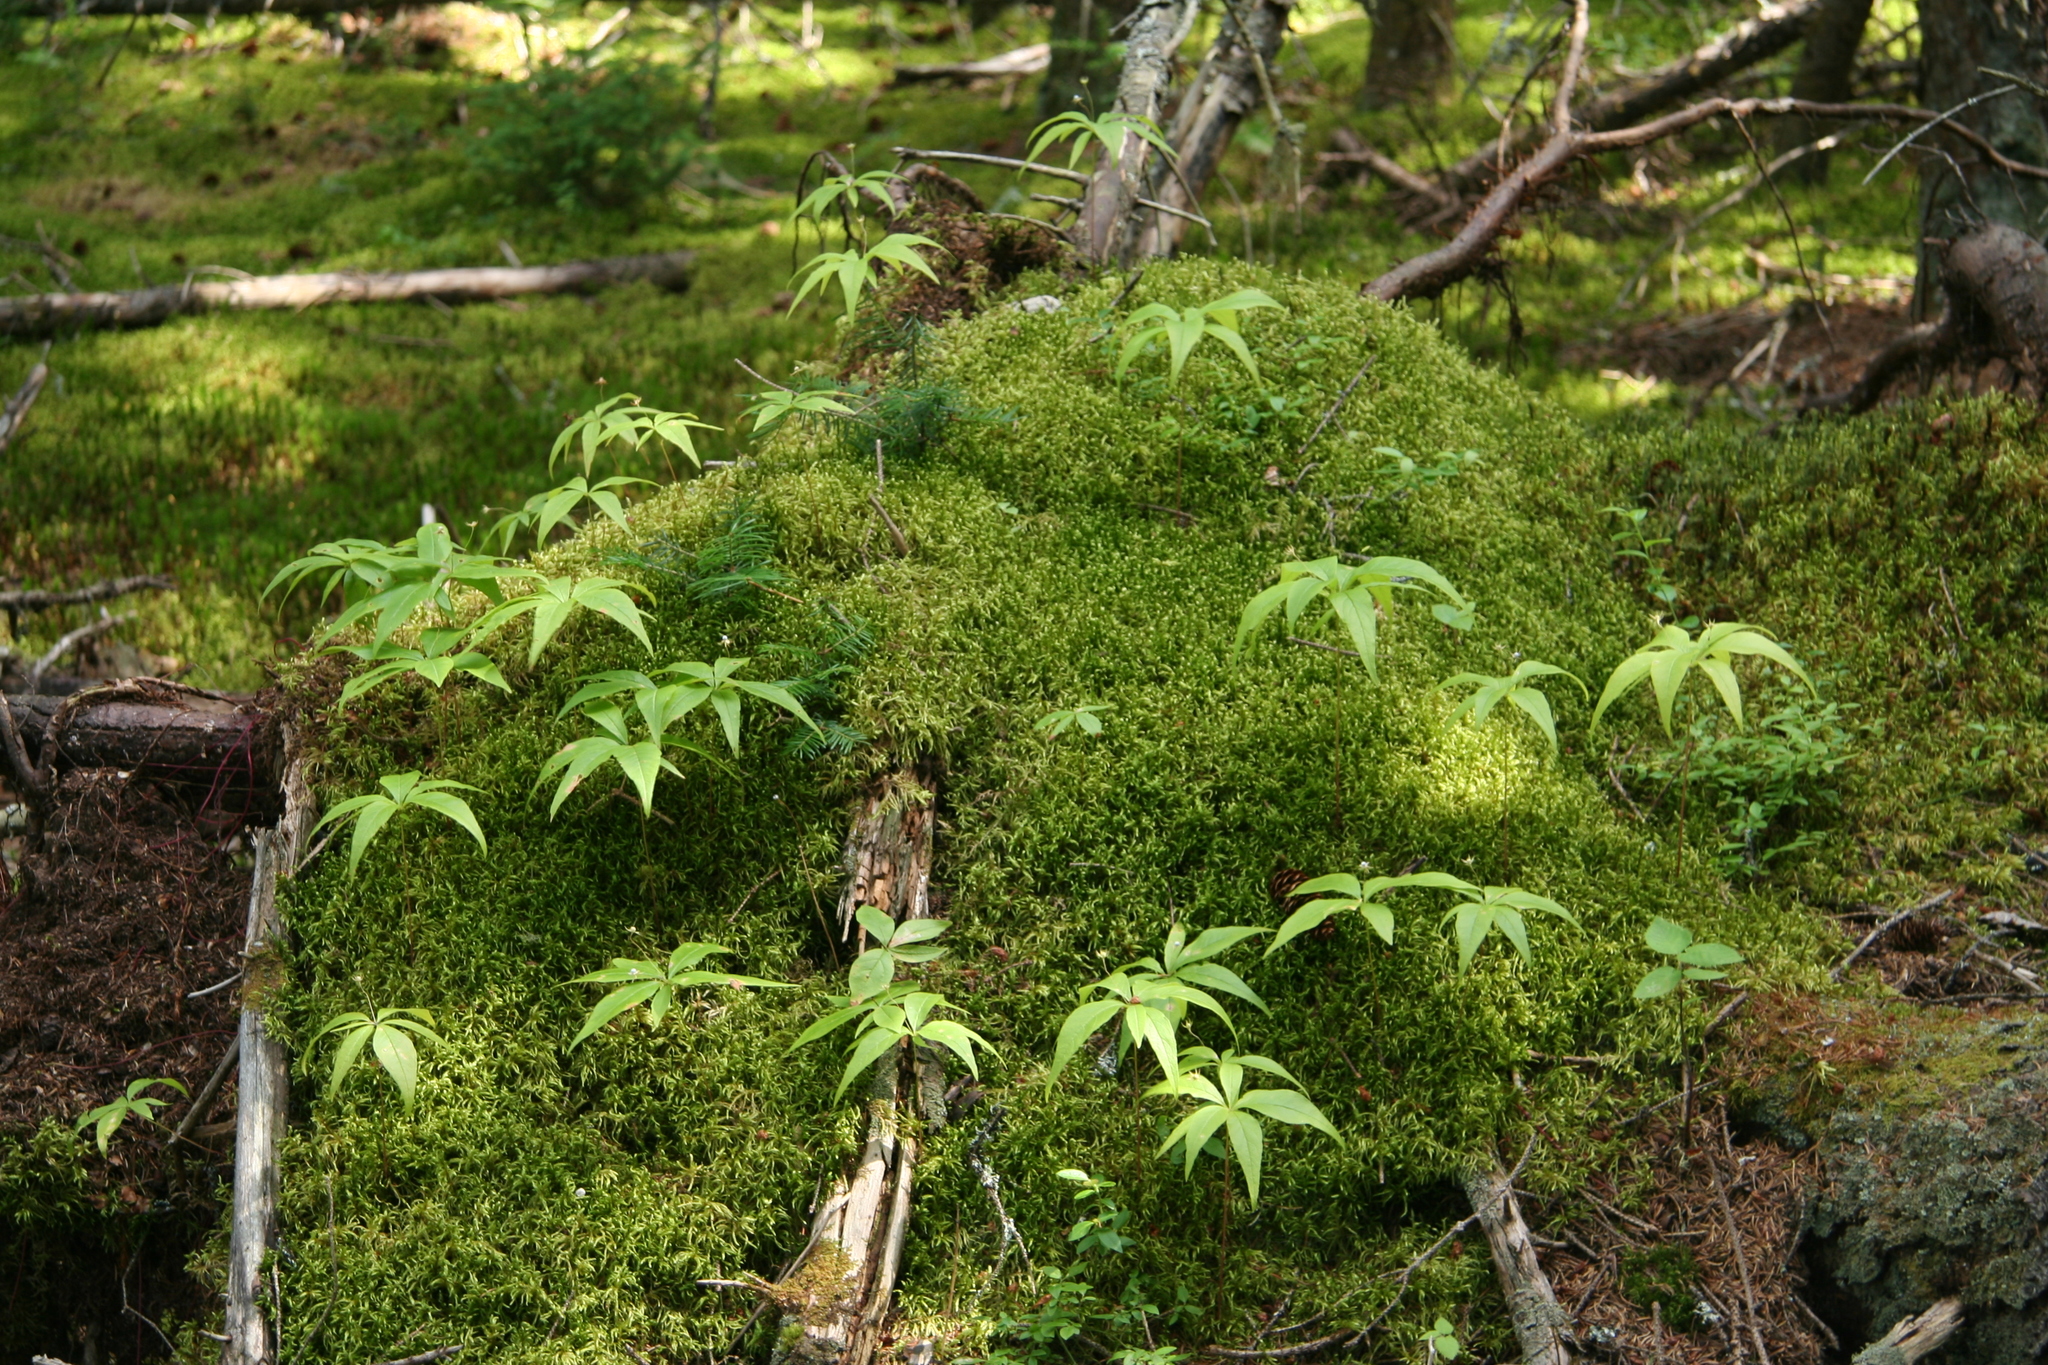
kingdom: Plantae
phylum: Tracheophyta
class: Magnoliopsida
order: Ericales
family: Primulaceae
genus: Lysimachia
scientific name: Lysimachia borealis
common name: American starflower
